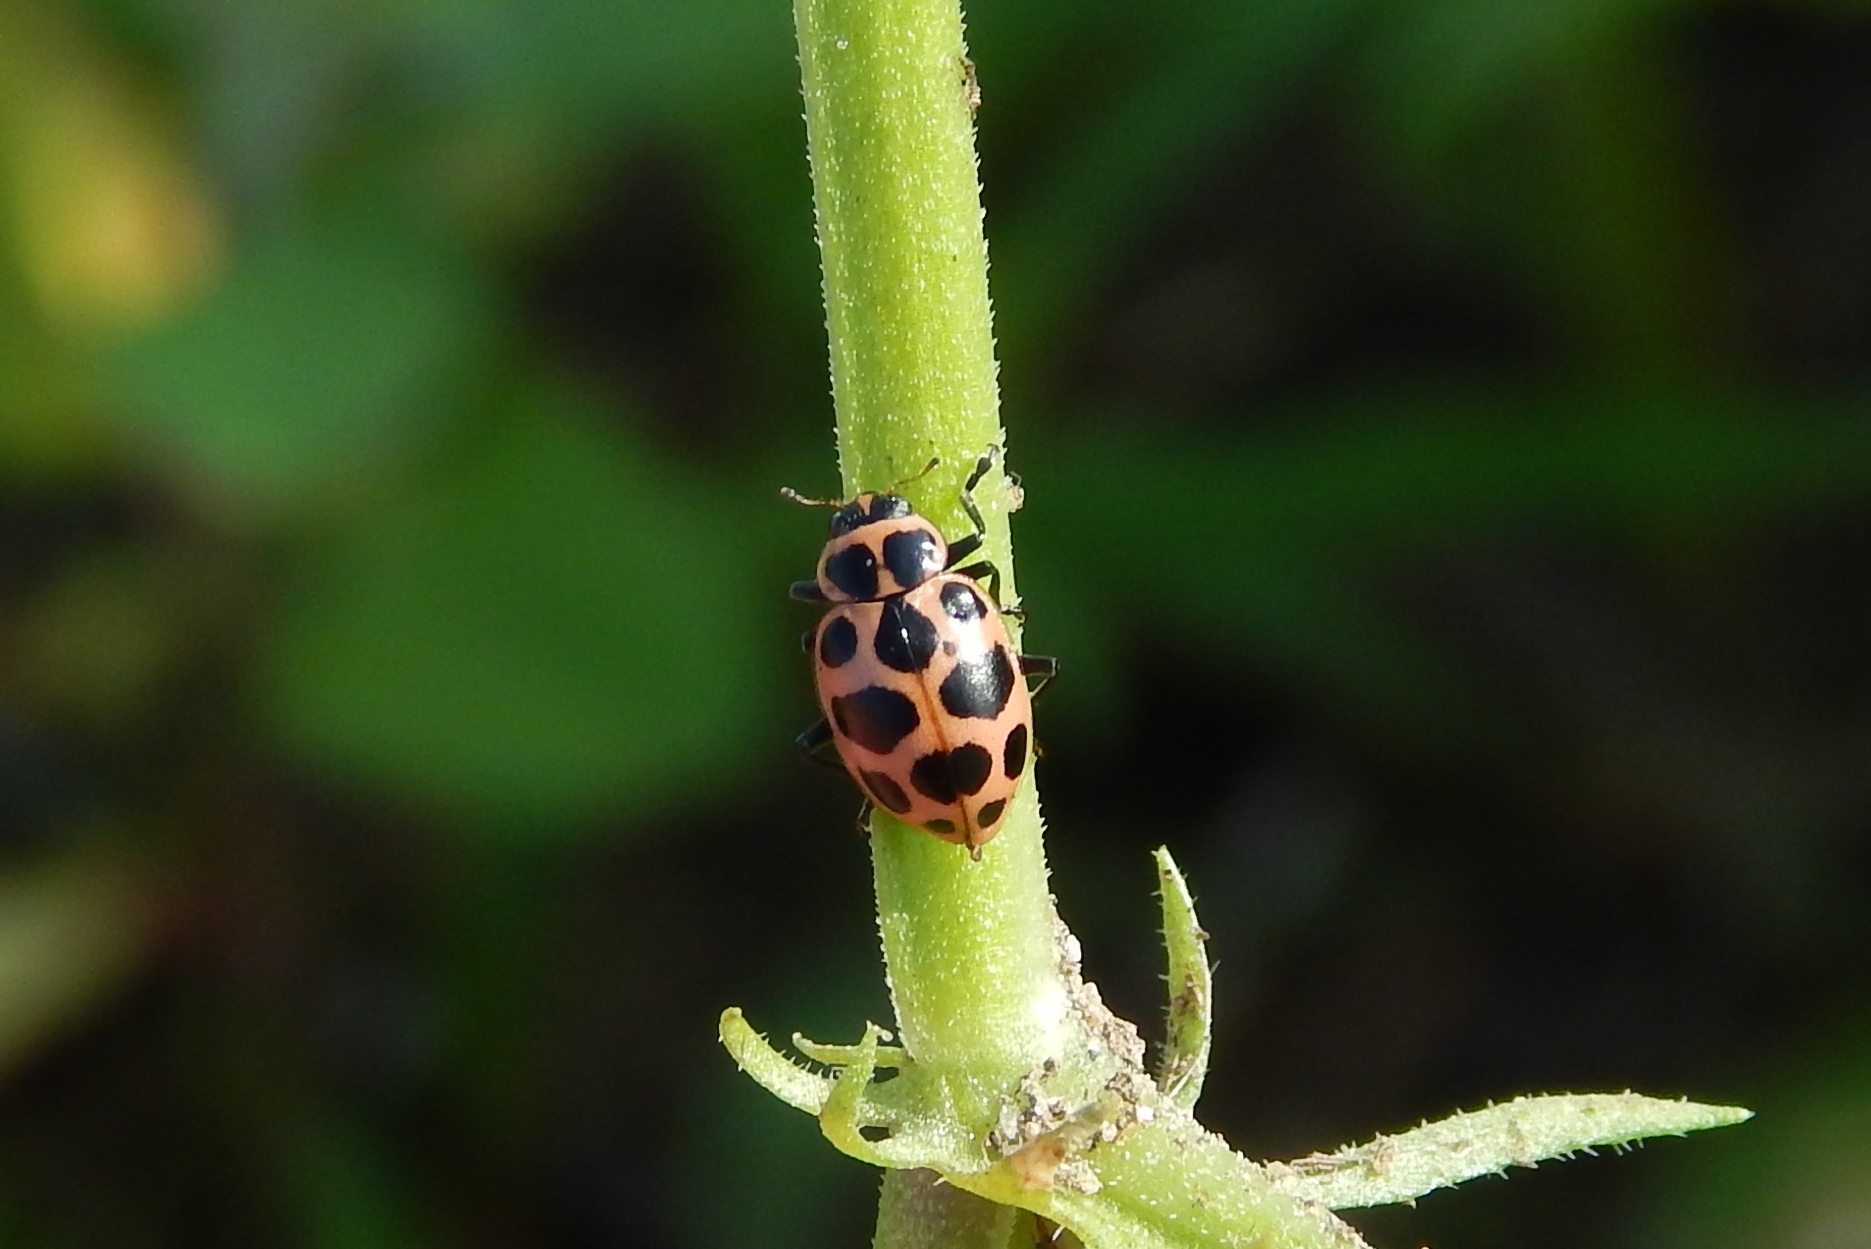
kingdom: Animalia
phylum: Arthropoda
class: Insecta
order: Coleoptera
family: Coccinellidae
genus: Coleomegilla
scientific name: Coleomegilla maculata
